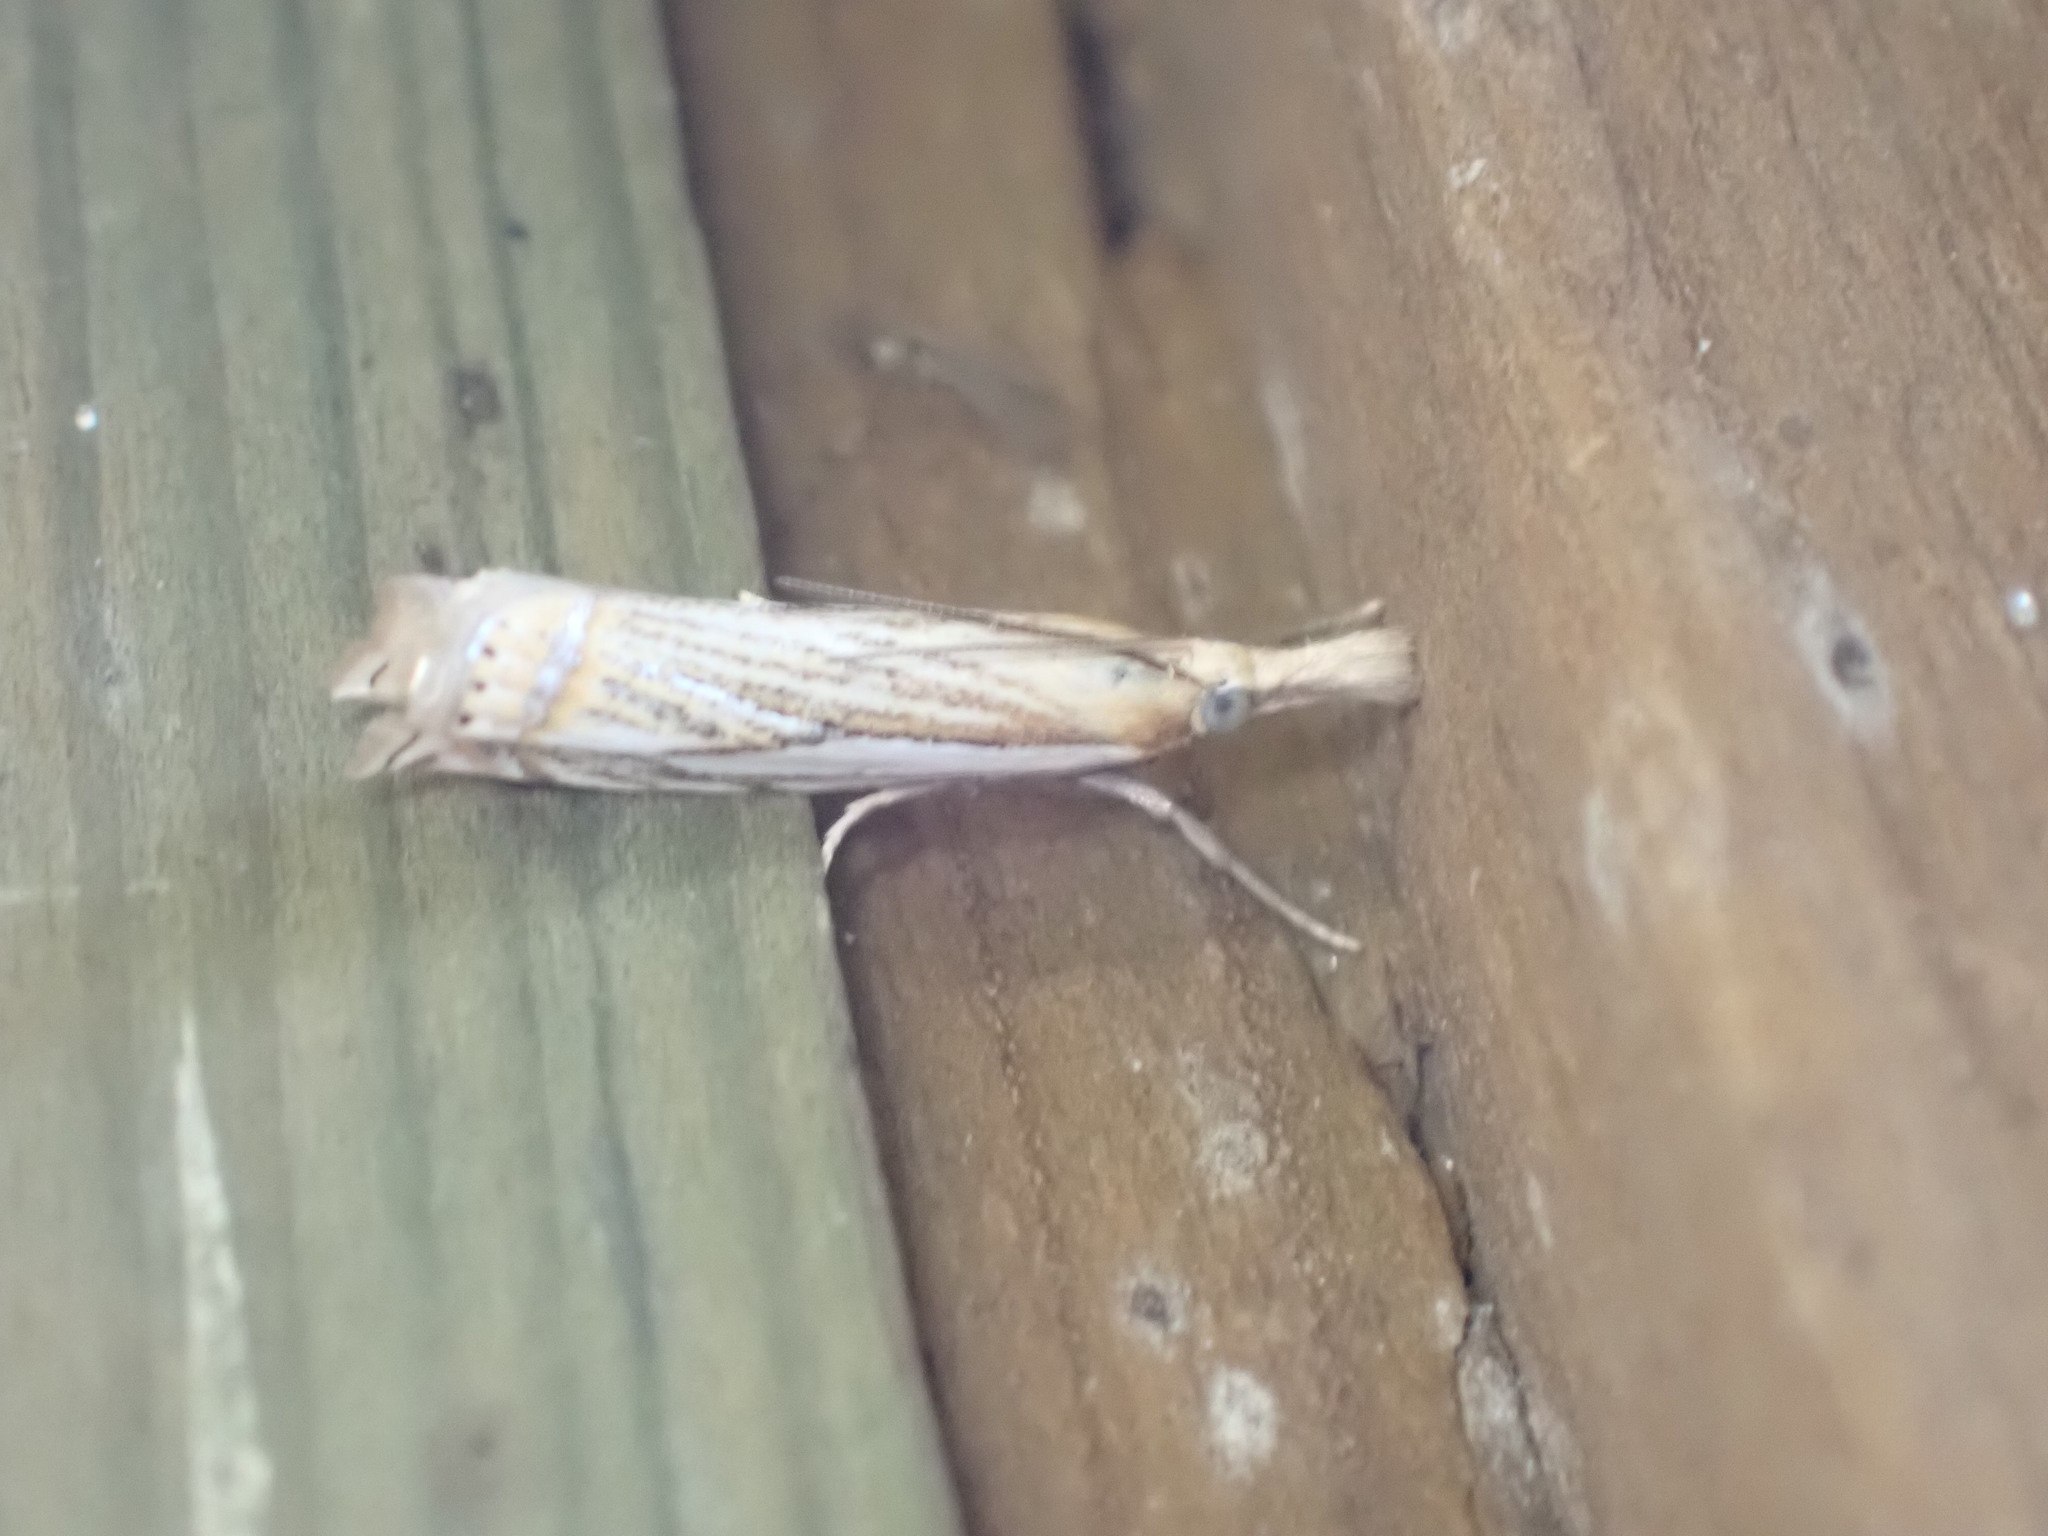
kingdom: Animalia
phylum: Arthropoda
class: Insecta
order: Lepidoptera
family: Crambidae
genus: Crambus
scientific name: Crambus saltuellus
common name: Pasture grass-veneer
